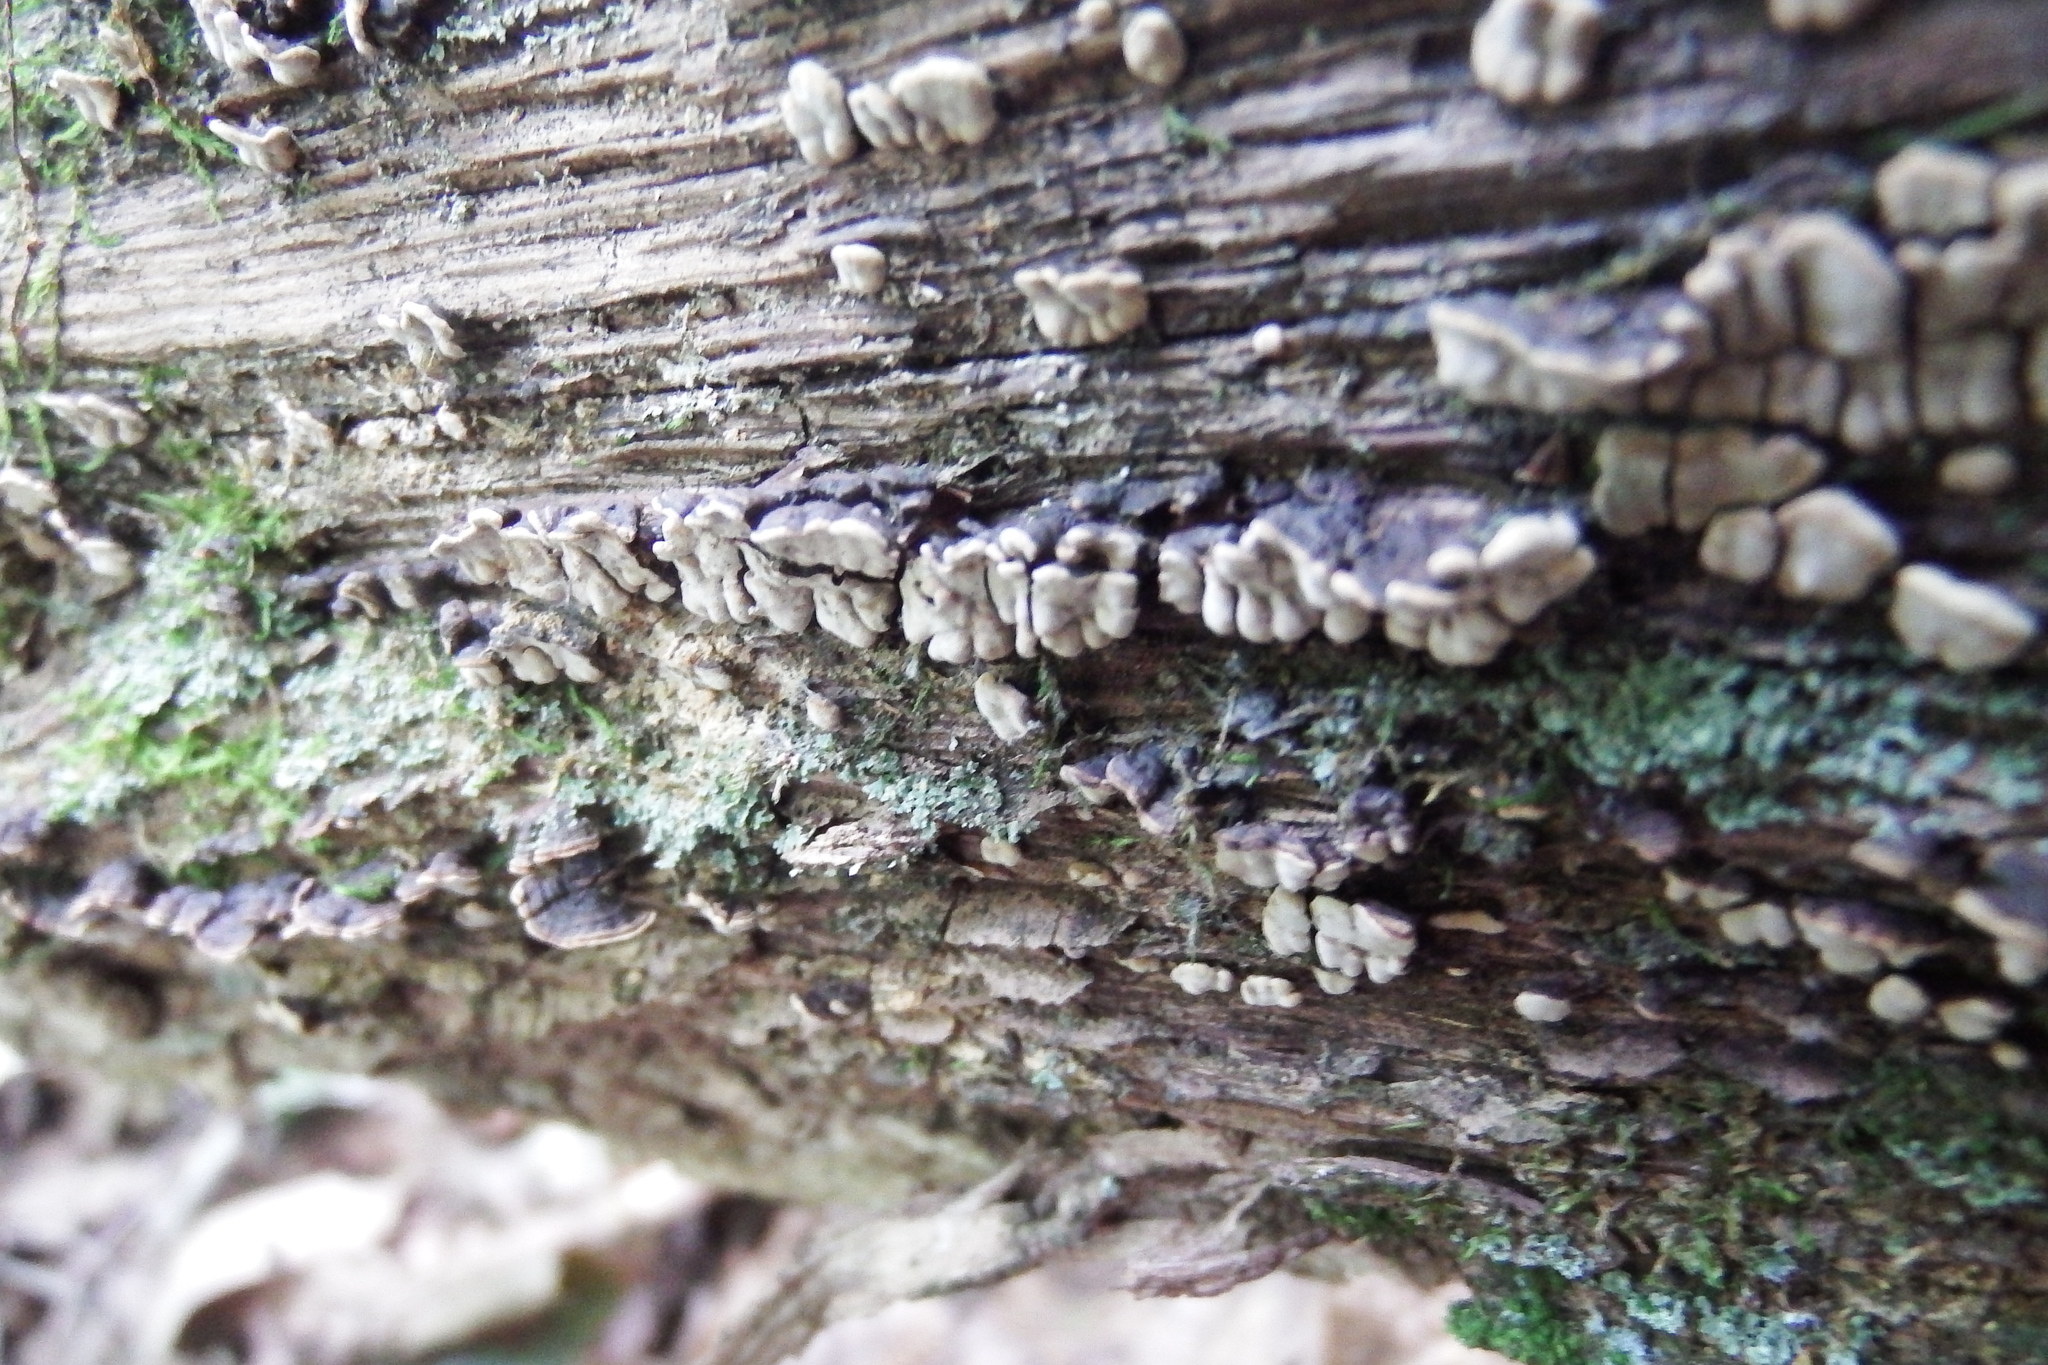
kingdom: Fungi
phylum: Basidiomycota
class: Agaricomycetes
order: Russulales
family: Stereaceae
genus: Xylobolus
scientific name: Xylobolus frustulatus
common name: Ceramic parchment
